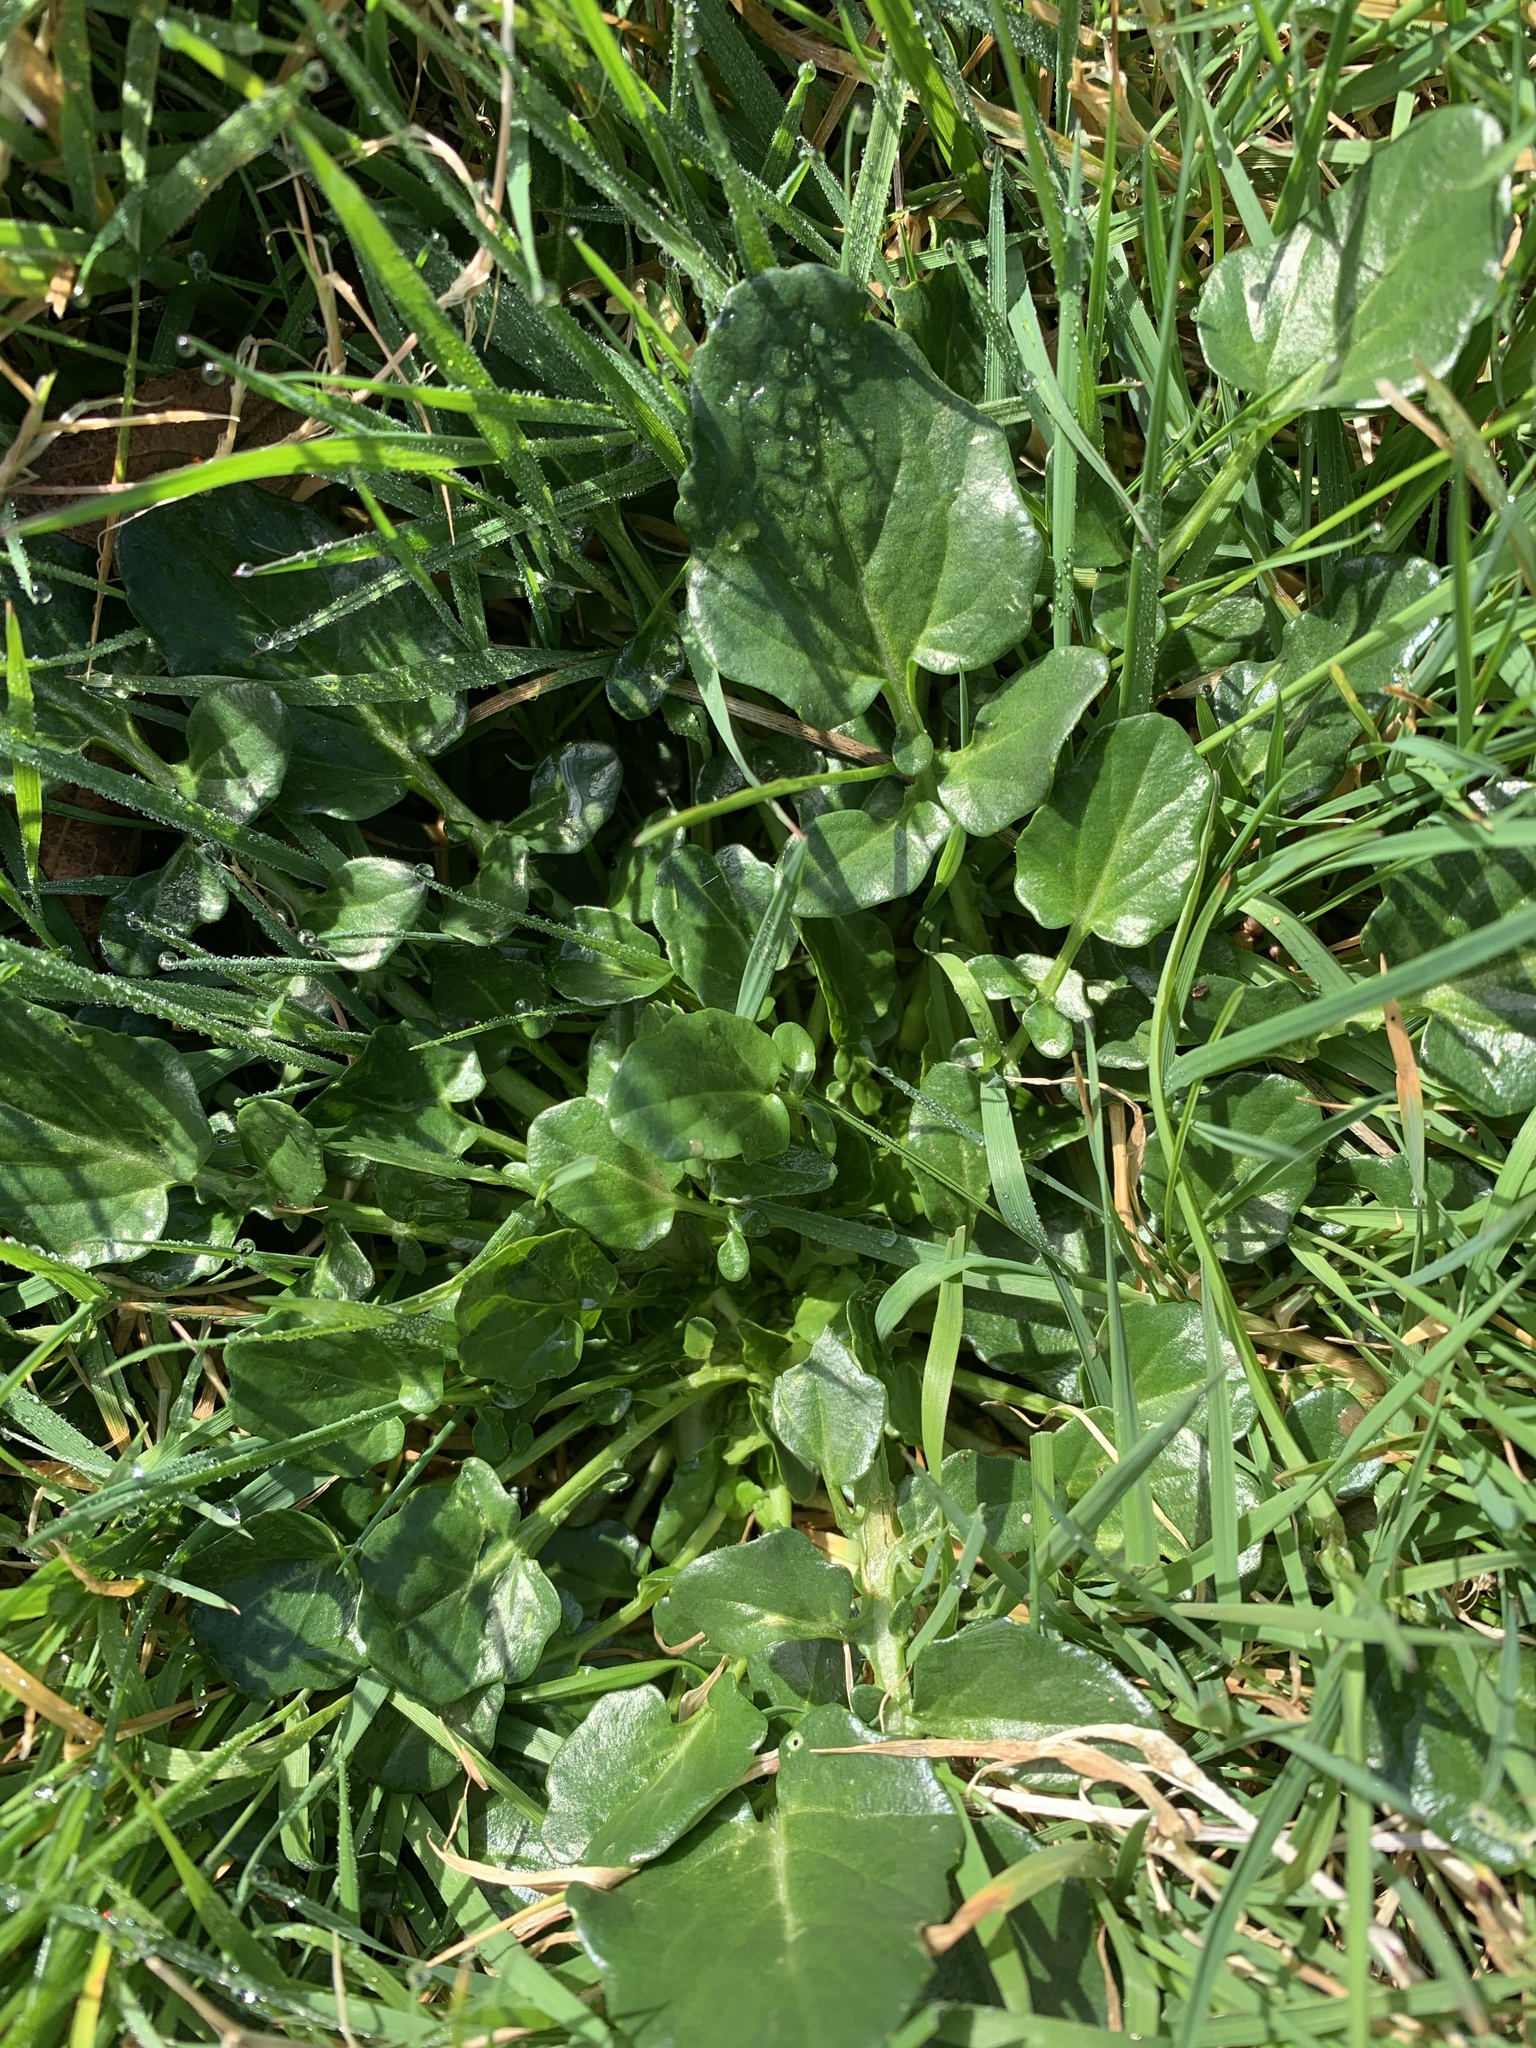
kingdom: Plantae
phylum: Tracheophyta
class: Magnoliopsida
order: Brassicales
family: Brassicaceae
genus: Barbarea
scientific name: Barbarea vulgaris
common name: Cressy-greens
